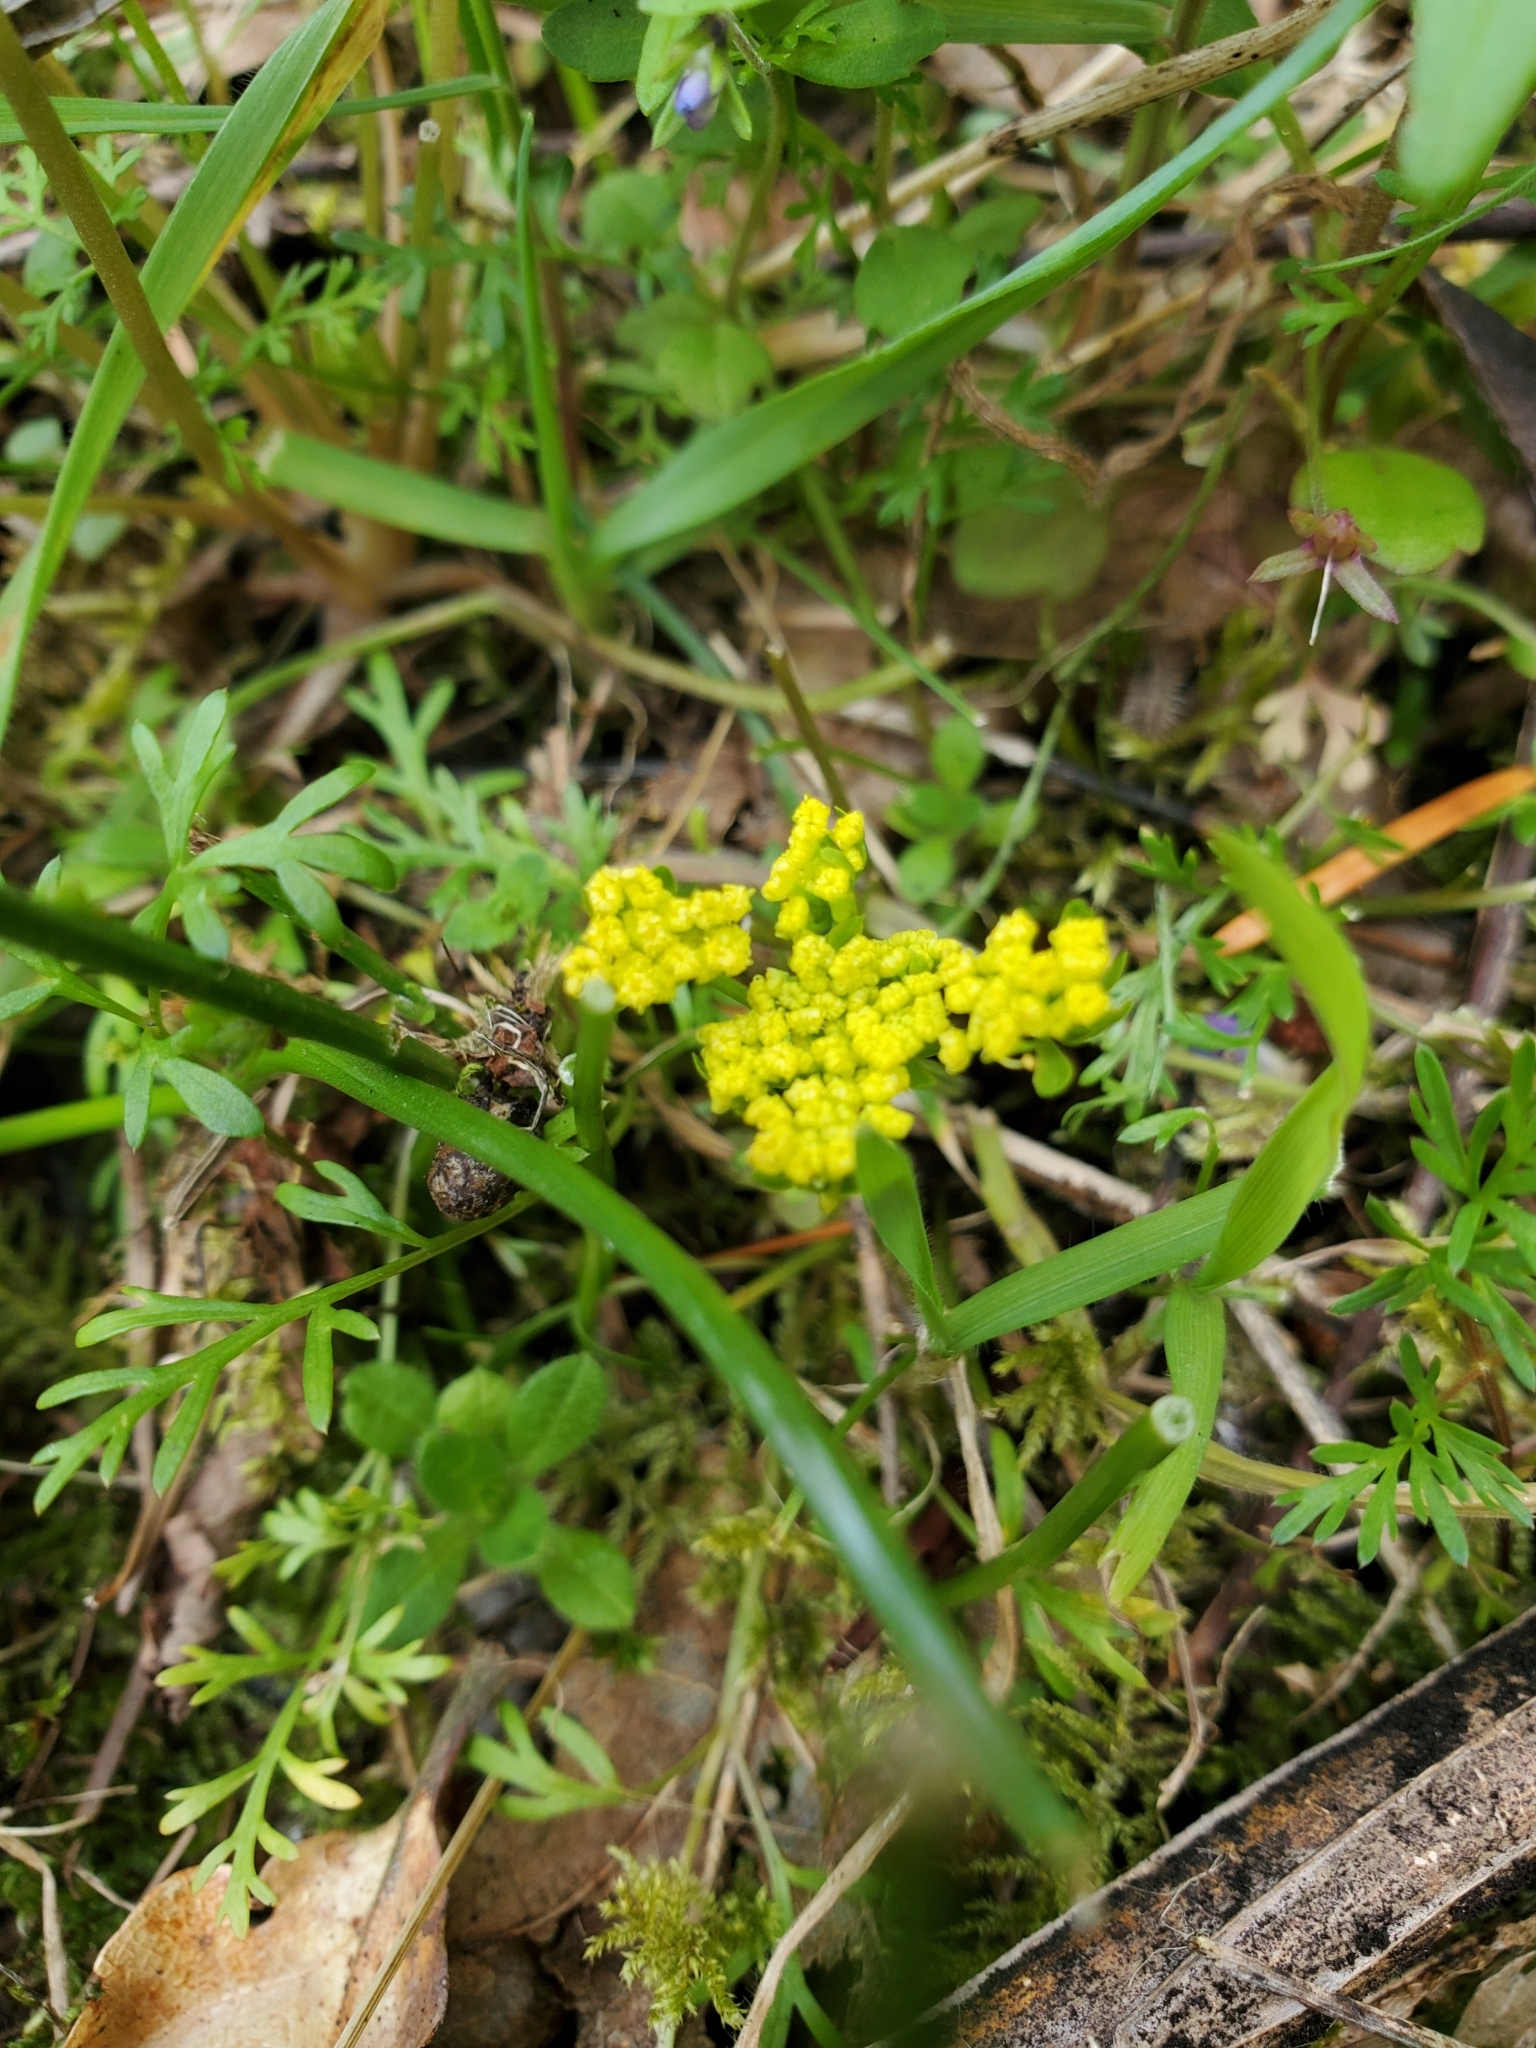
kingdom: Plantae
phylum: Tracheophyta
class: Magnoliopsida
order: Apiales
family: Apiaceae
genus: Lomatium
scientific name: Lomatium utriculatum
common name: Fine-leaf desert-parsley
